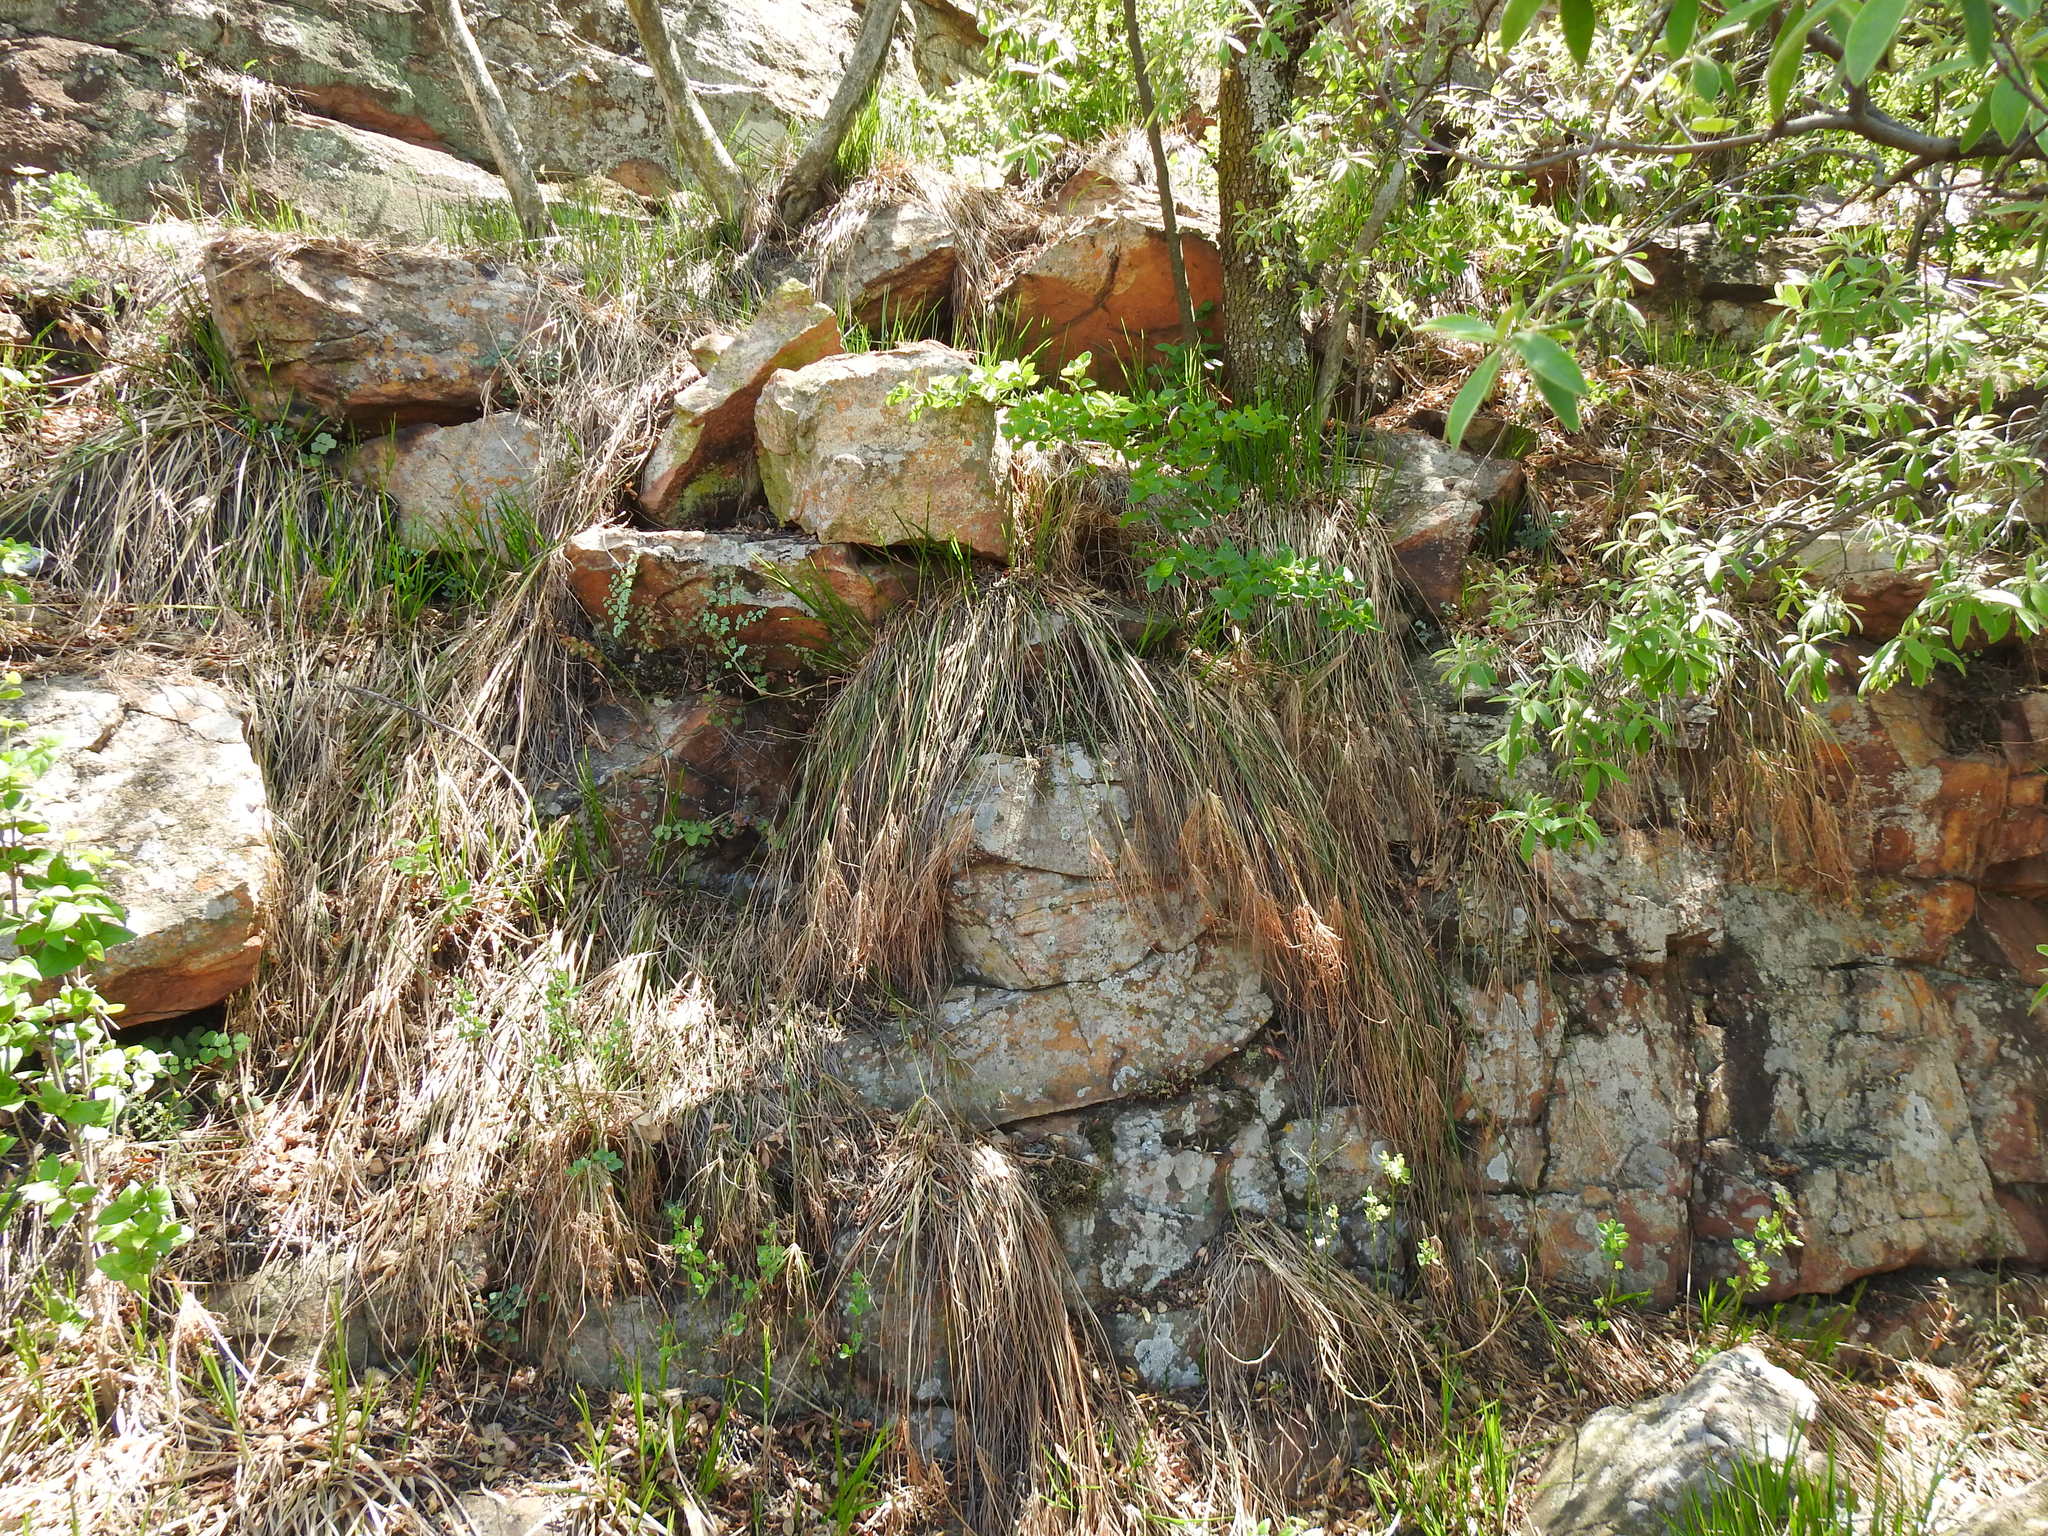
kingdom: Plantae
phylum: Tracheophyta
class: Liliopsida
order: Poales
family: Cyperaceae
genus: Cyperus
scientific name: Cyperus leptocladus
